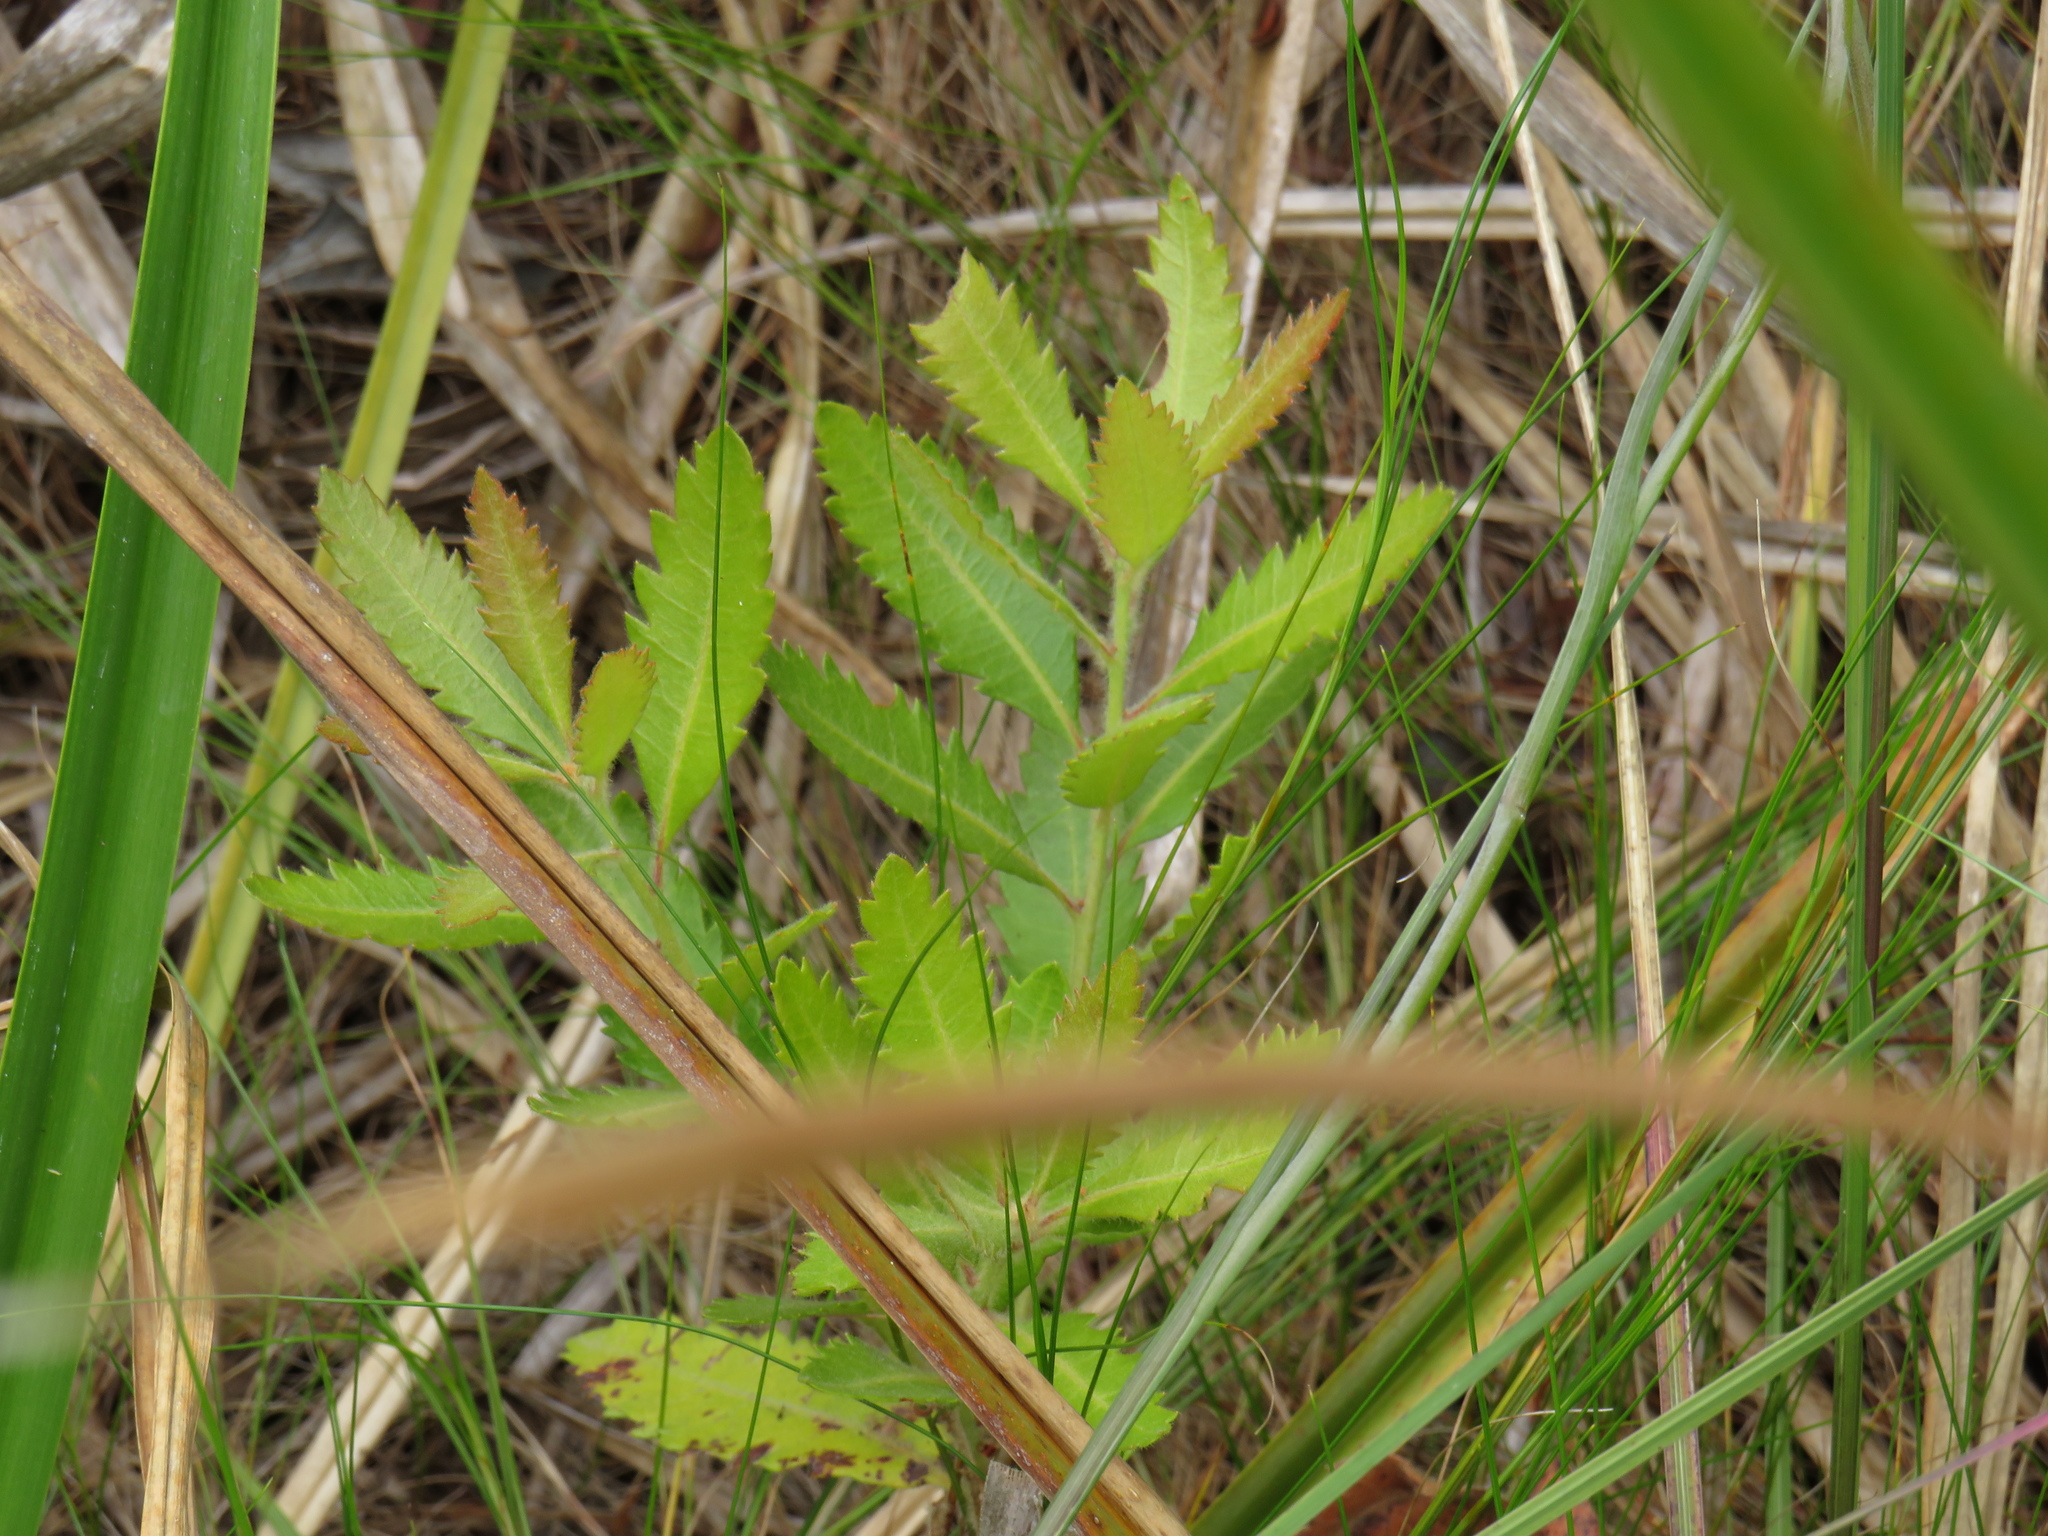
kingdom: Plantae
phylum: Tracheophyta
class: Magnoliopsida
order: Fagales
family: Myricaceae
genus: Morella
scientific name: Morella serrata
